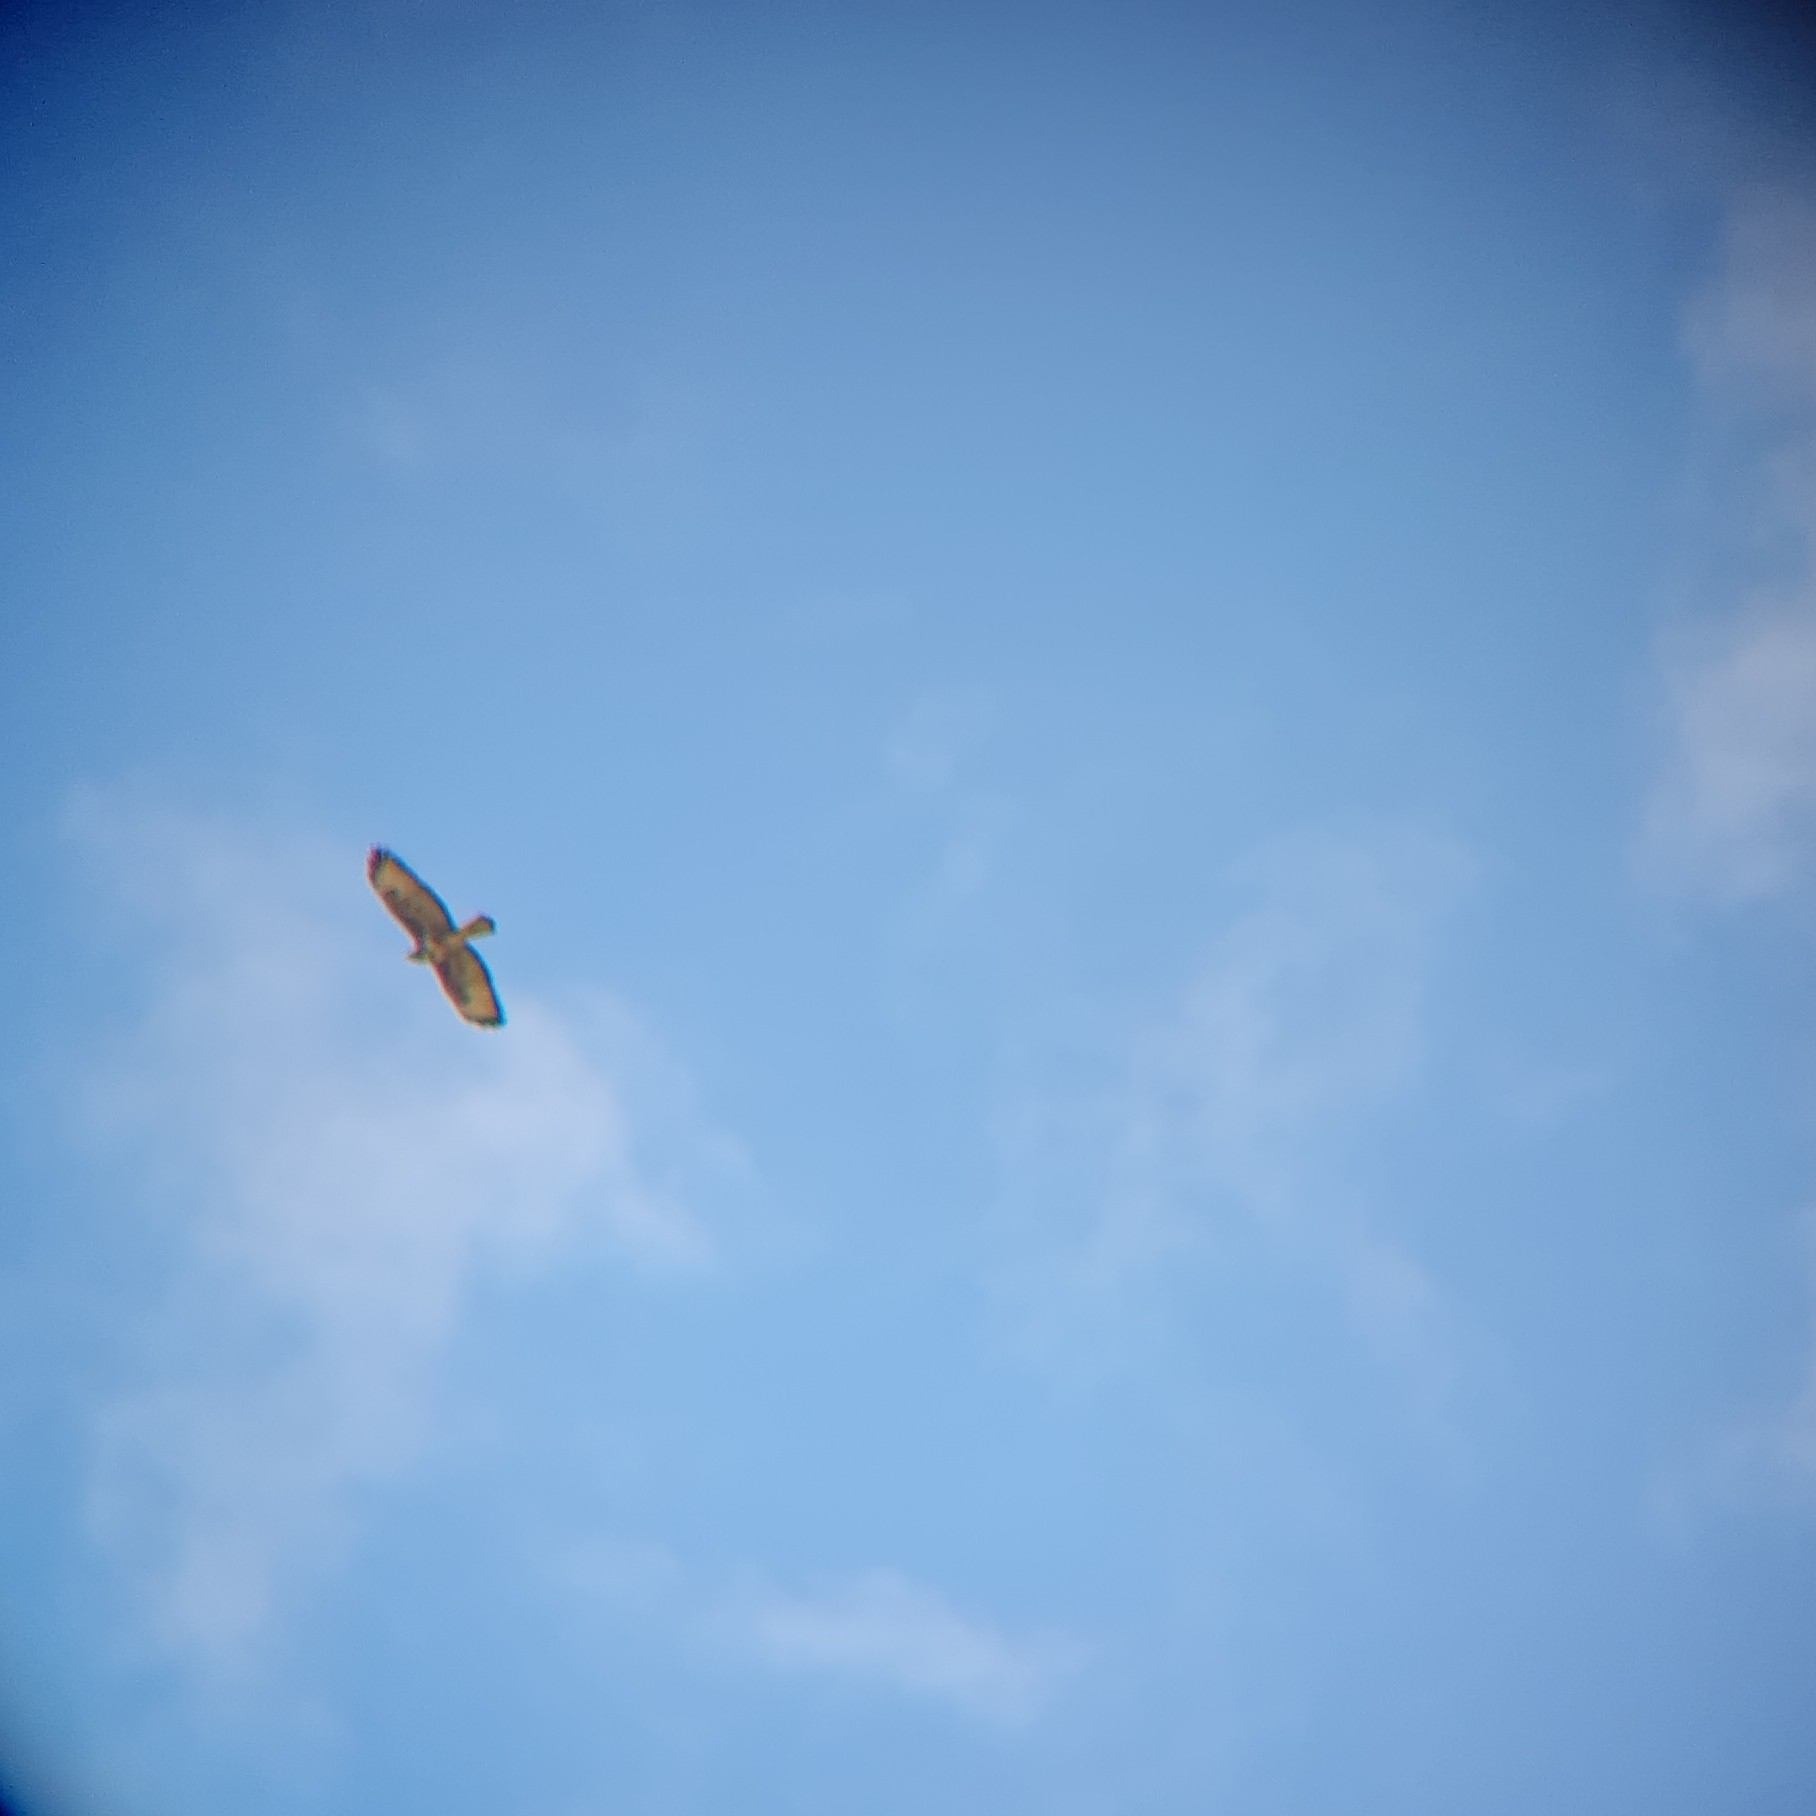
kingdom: Animalia
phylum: Chordata
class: Aves
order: Accipitriformes
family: Accipitridae
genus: Buteo
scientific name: Buteo buteo
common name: Common buzzard
